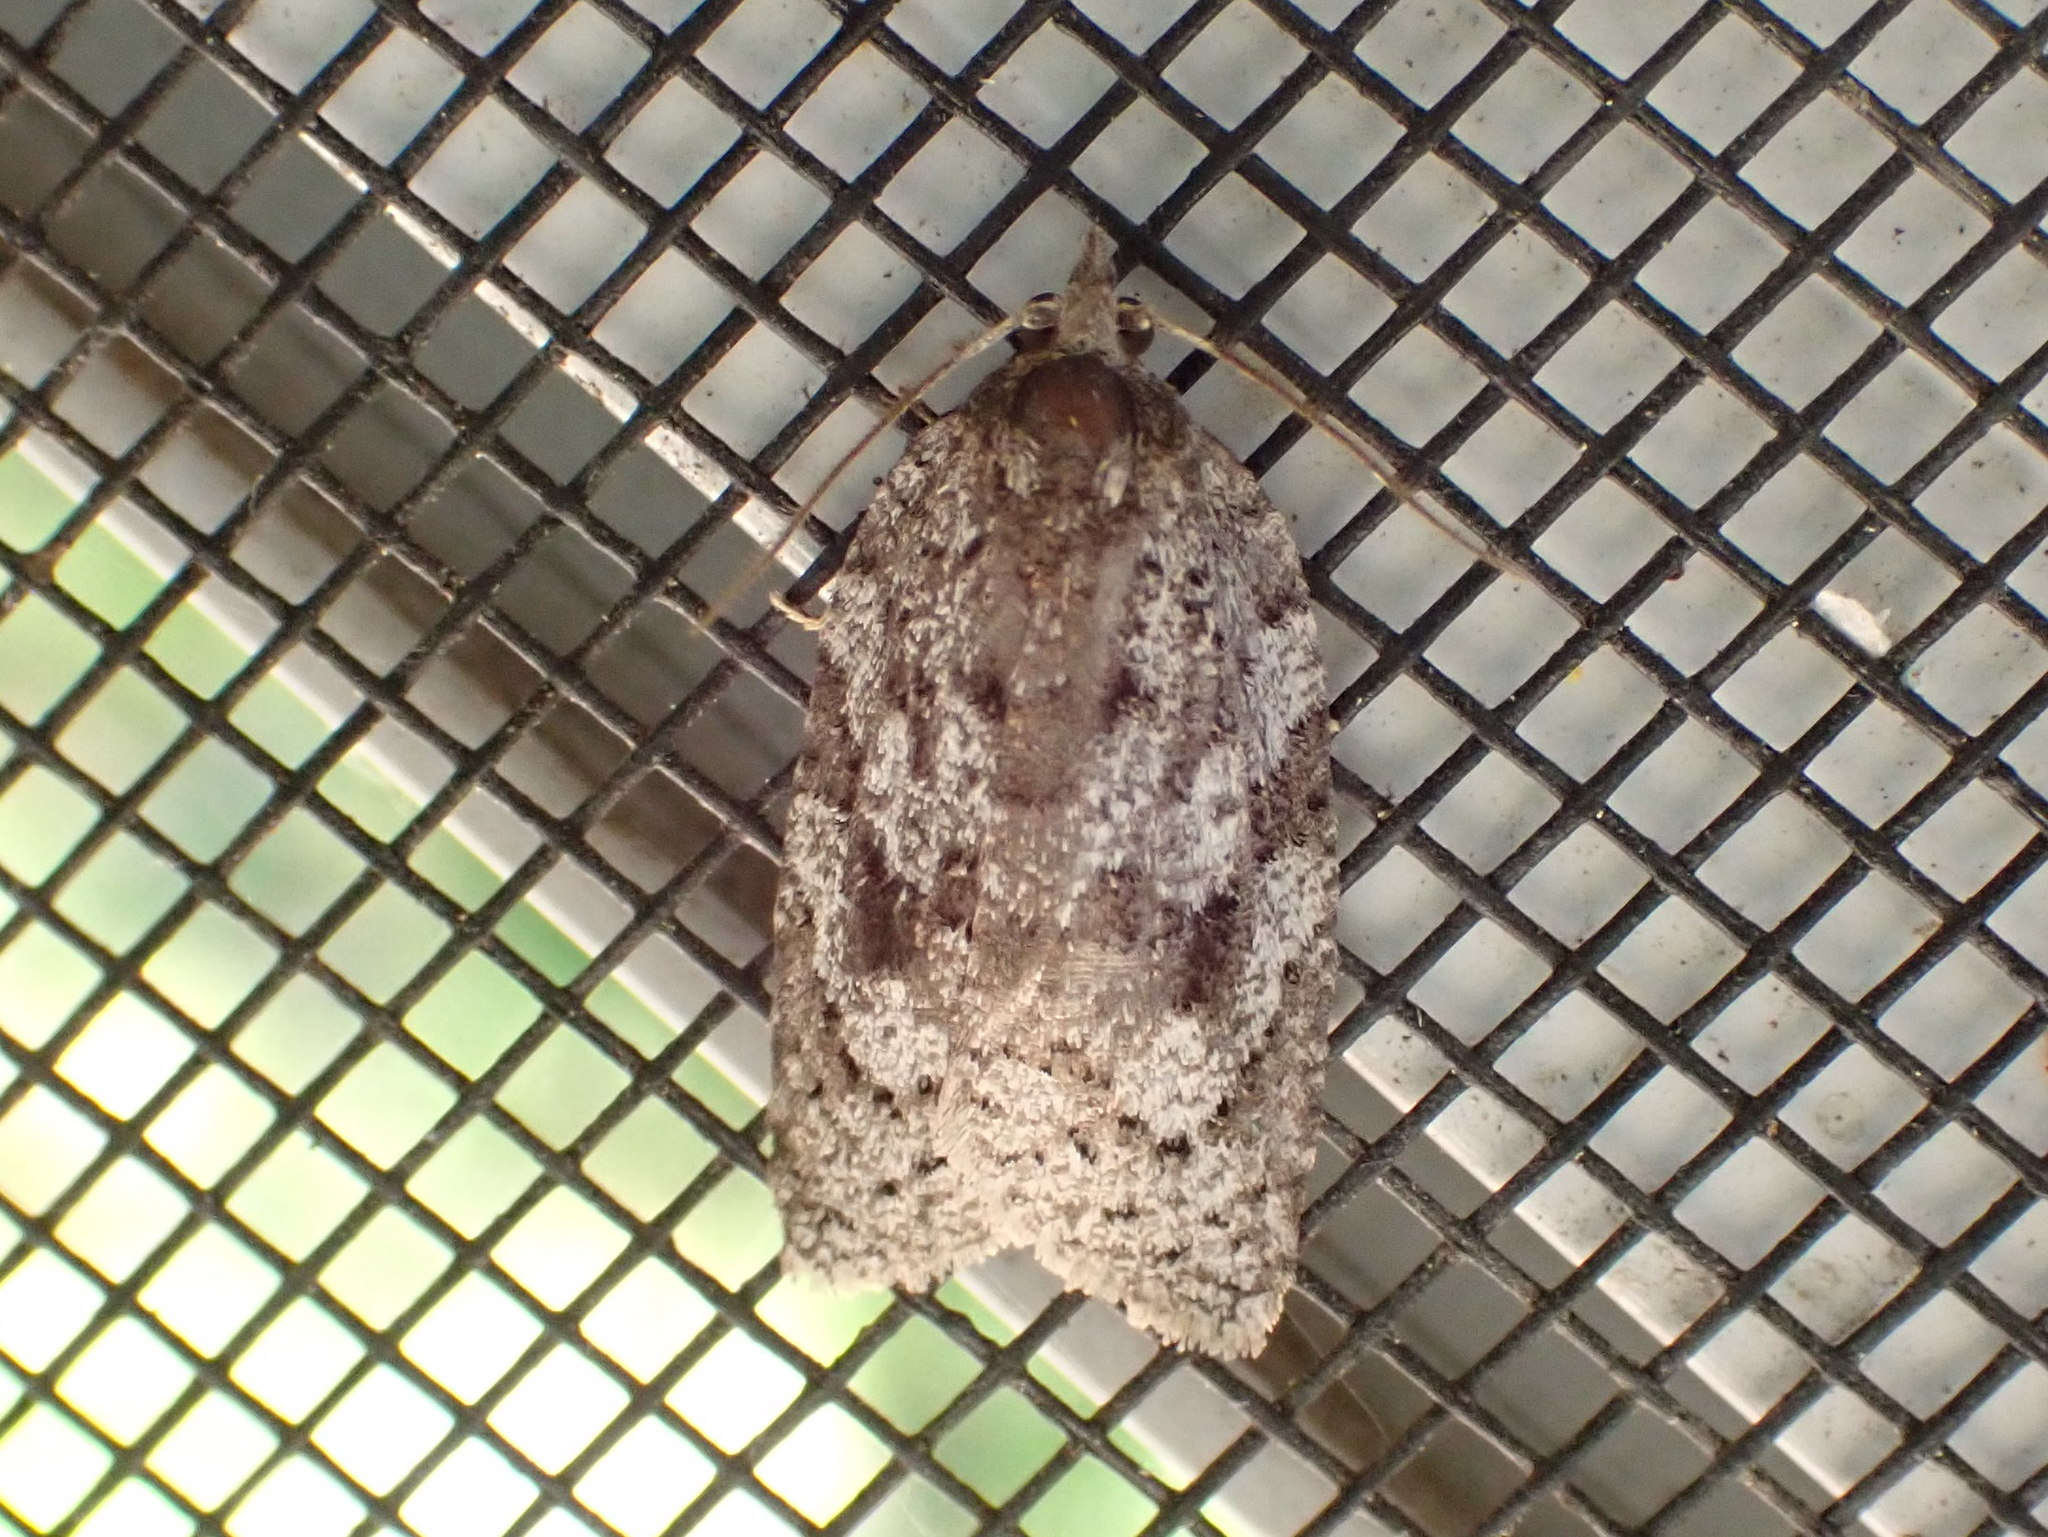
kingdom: Animalia
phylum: Arthropoda
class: Insecta
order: Lepidoptera
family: Tortricidae
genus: Amorbia
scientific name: Amorbia humerosana
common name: White-lined leafroller moth
